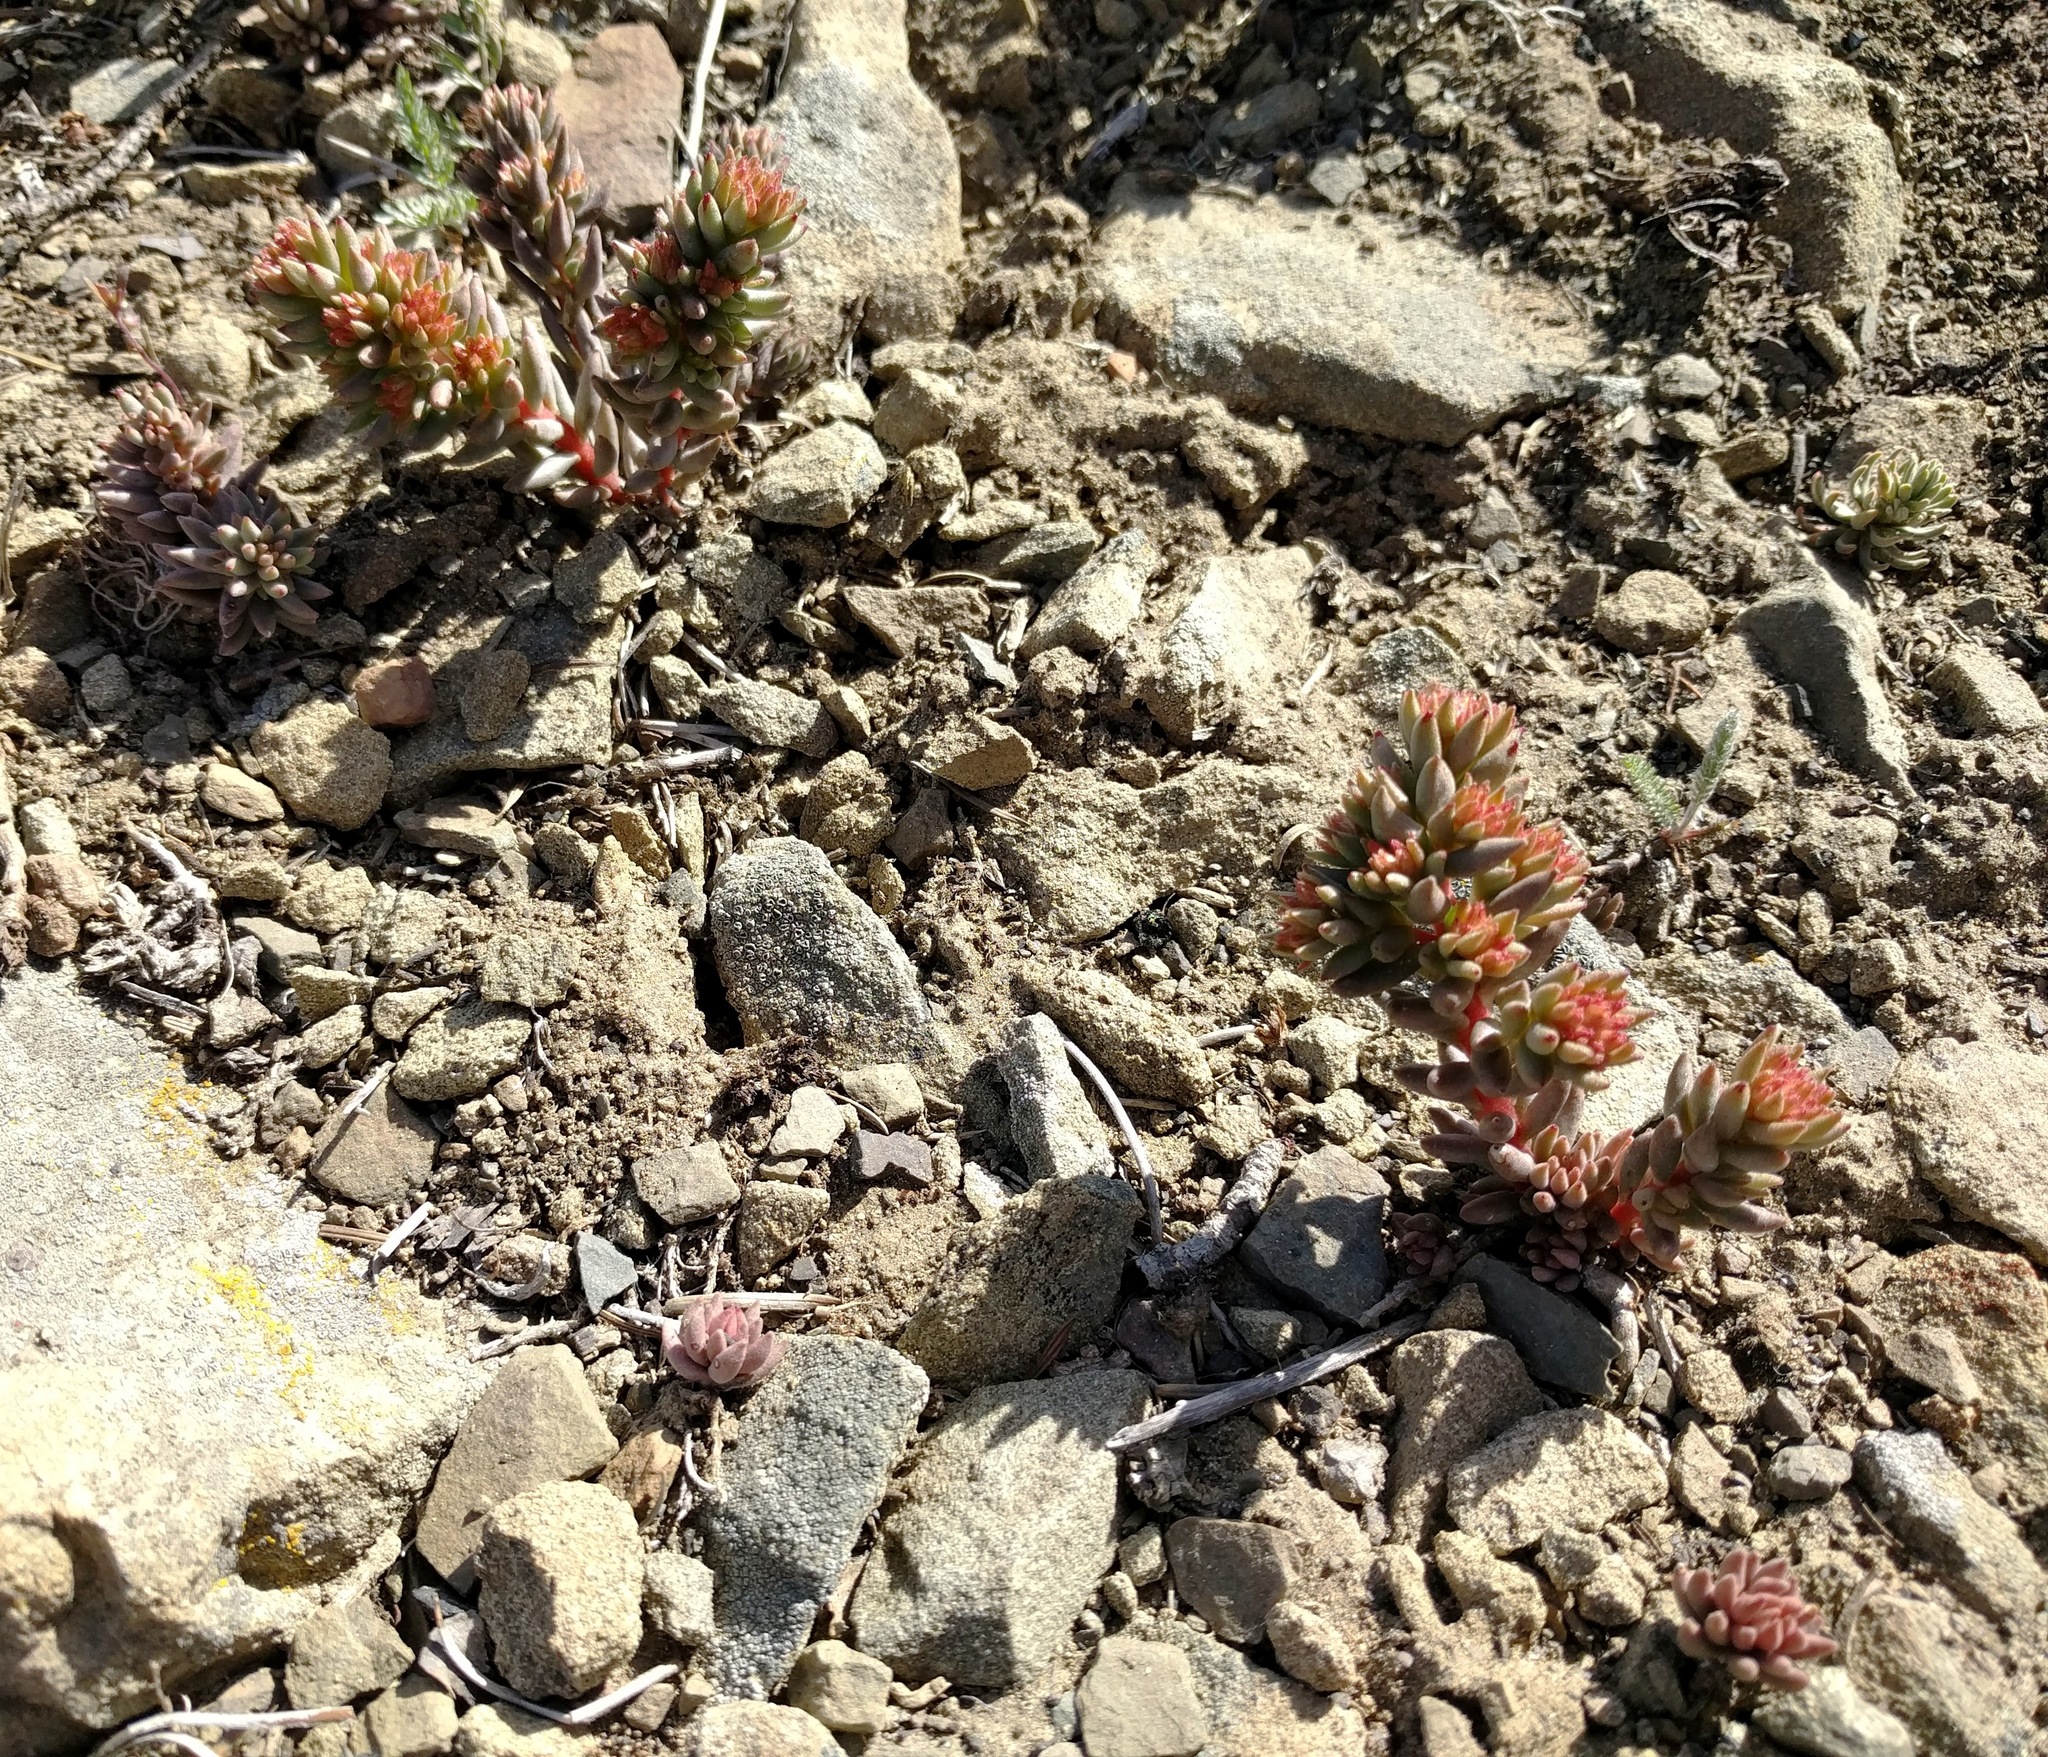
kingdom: Plantae
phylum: Tracheophyta
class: Magnoliopsida
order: Saxifragales
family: Crassulaceae
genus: Sedum
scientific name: Sedum lanceolatum
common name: Common stonecrop
